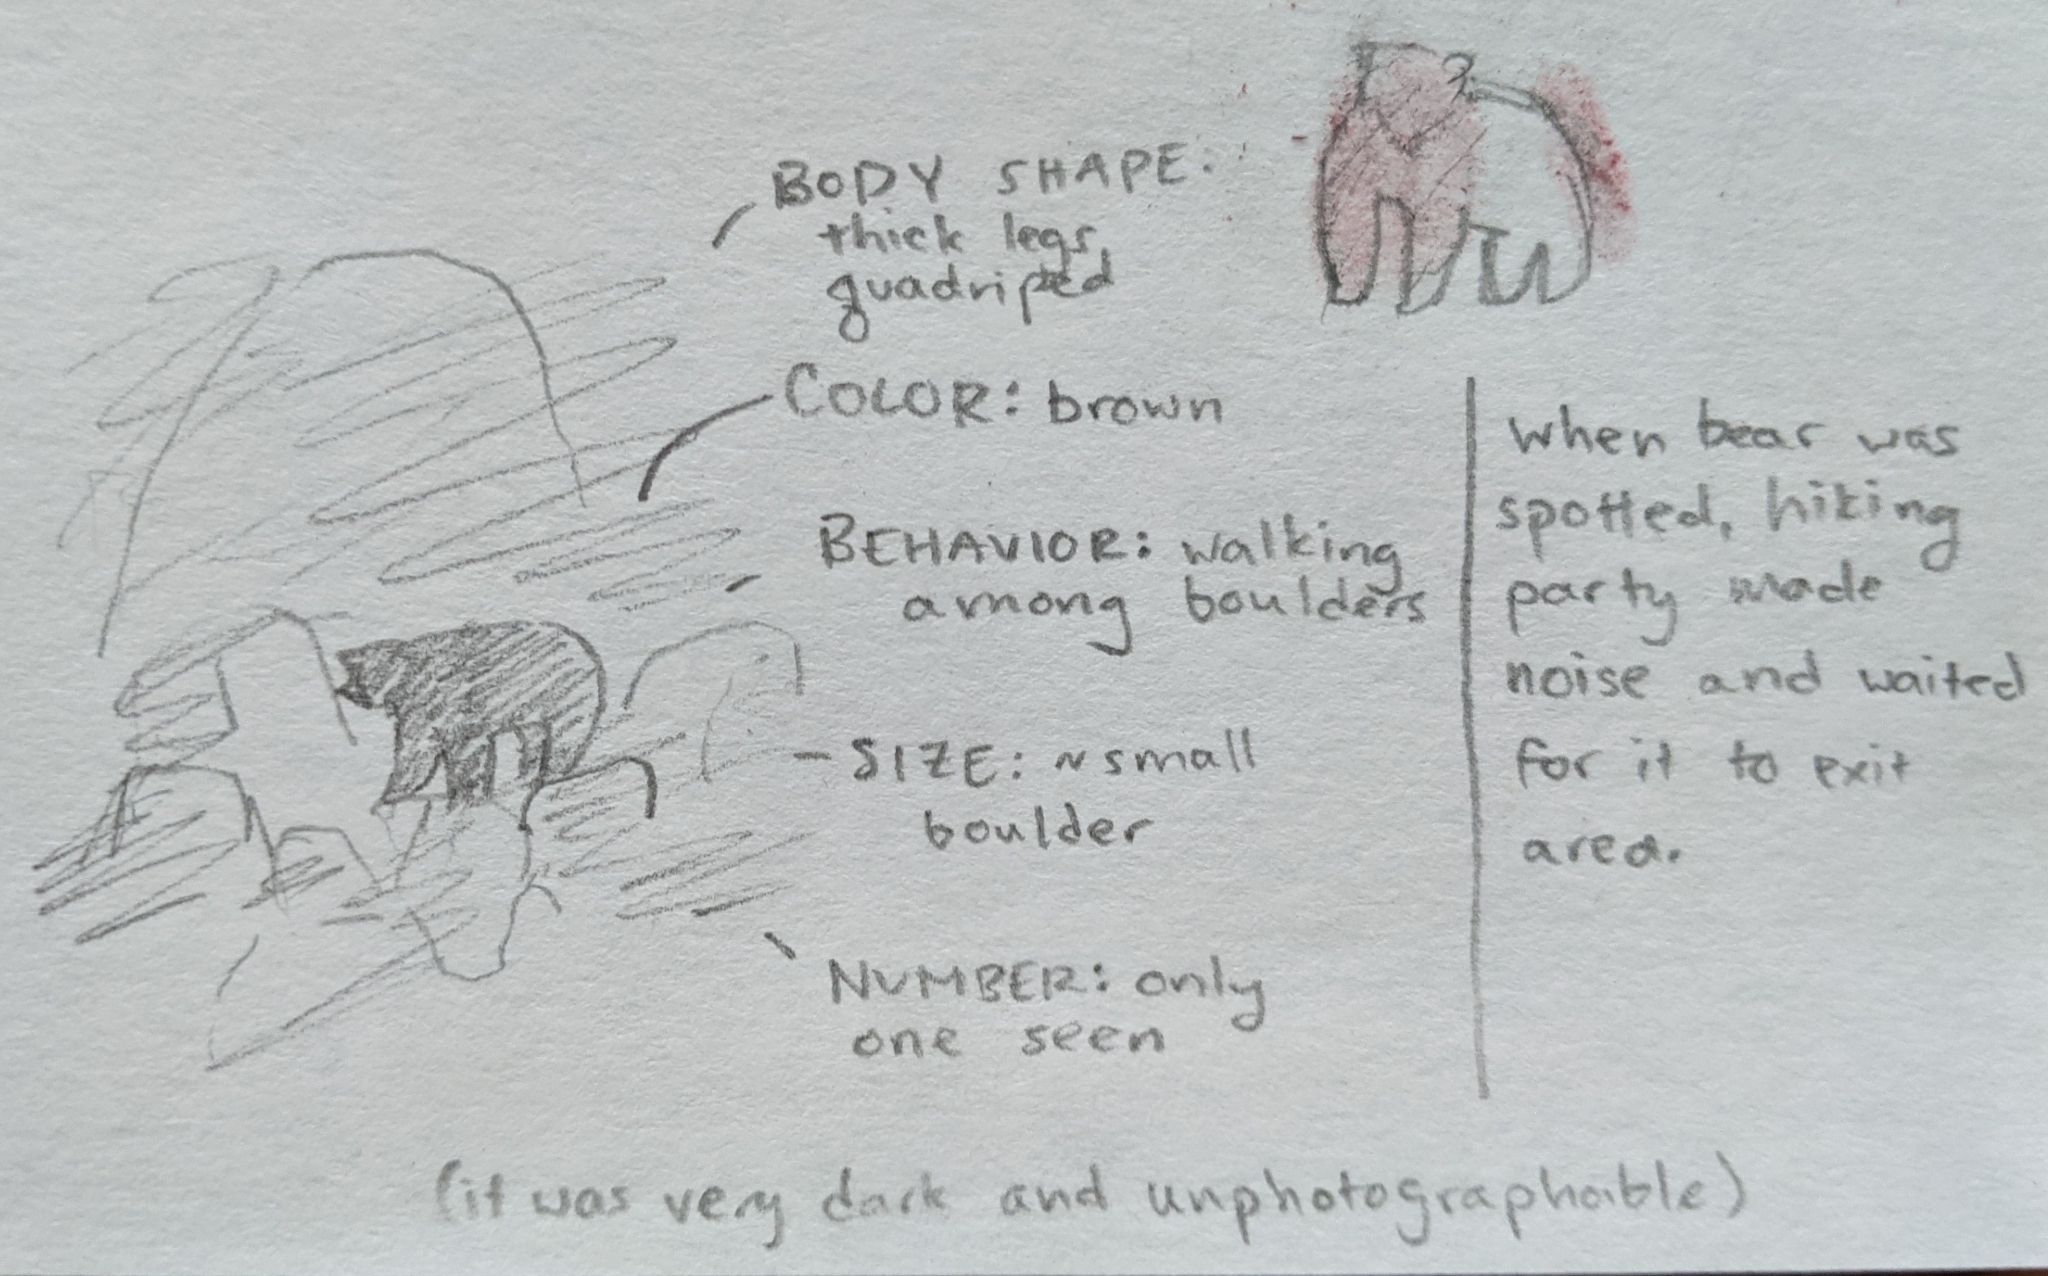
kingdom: Animalia
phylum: Chordata
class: Mammalia
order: Carnivora
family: Ursidae
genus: Ursus
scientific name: Ursus americanus
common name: American black bear
